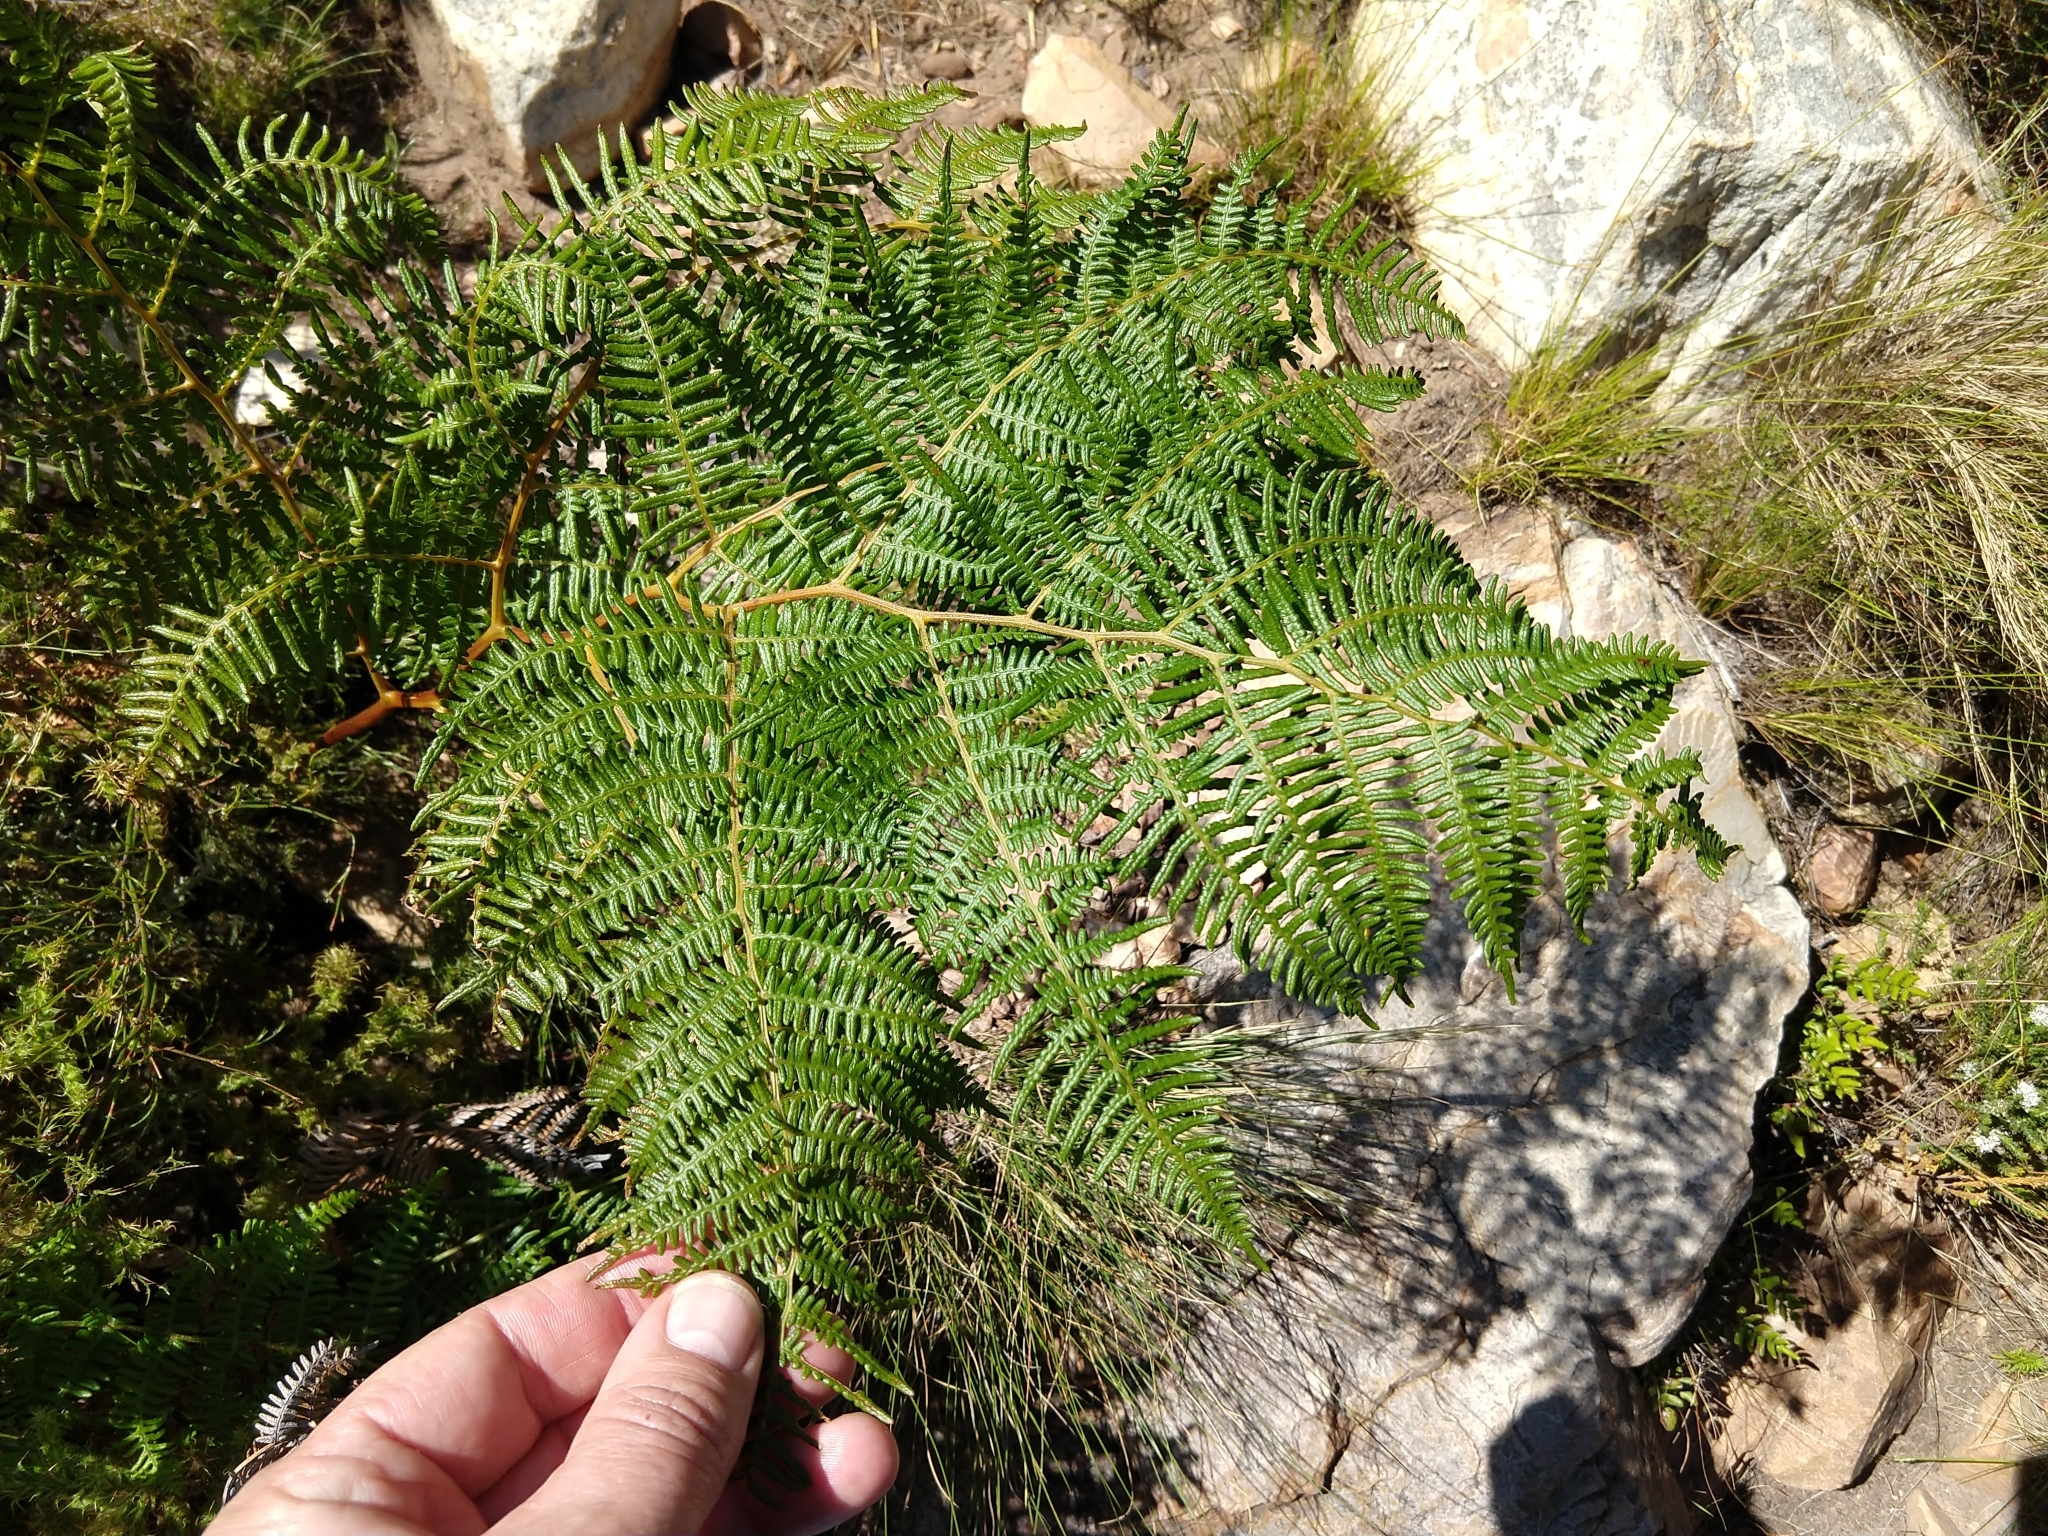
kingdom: Plantae
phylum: Tracheophyta
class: Polypodiopsida
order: Polypodiales
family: Dennstaedtiaceae
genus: Pteridium
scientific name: Pteridium aquilinum
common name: Bracken
